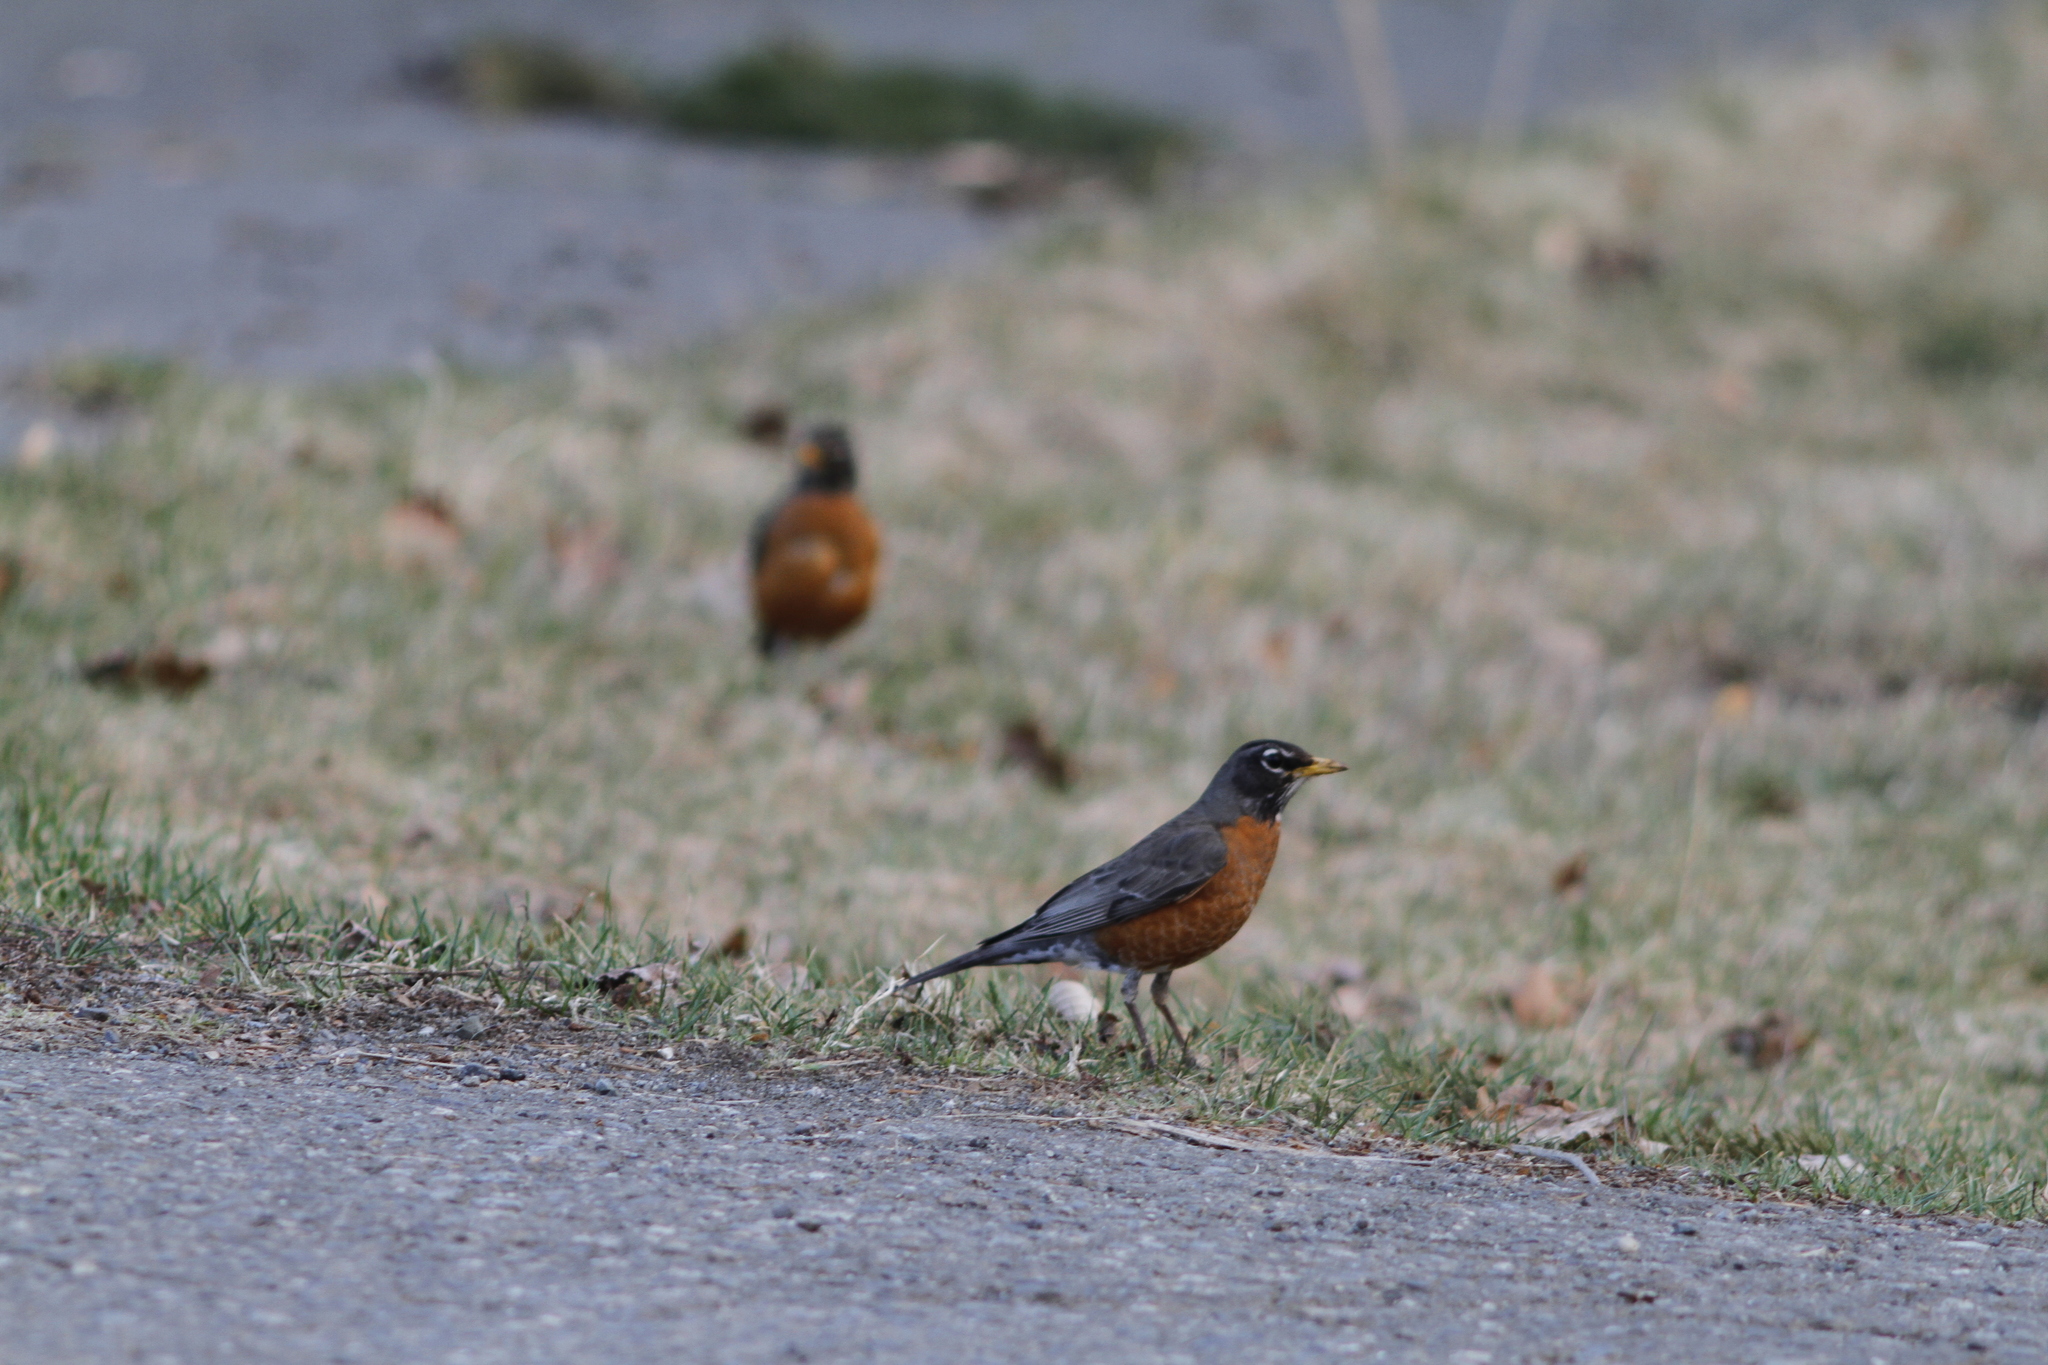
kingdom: Animalia
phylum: Chordata
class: Aves
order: Passeriformes
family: Turdidae
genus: Turdus
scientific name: Turdus migratorius
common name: American robin
